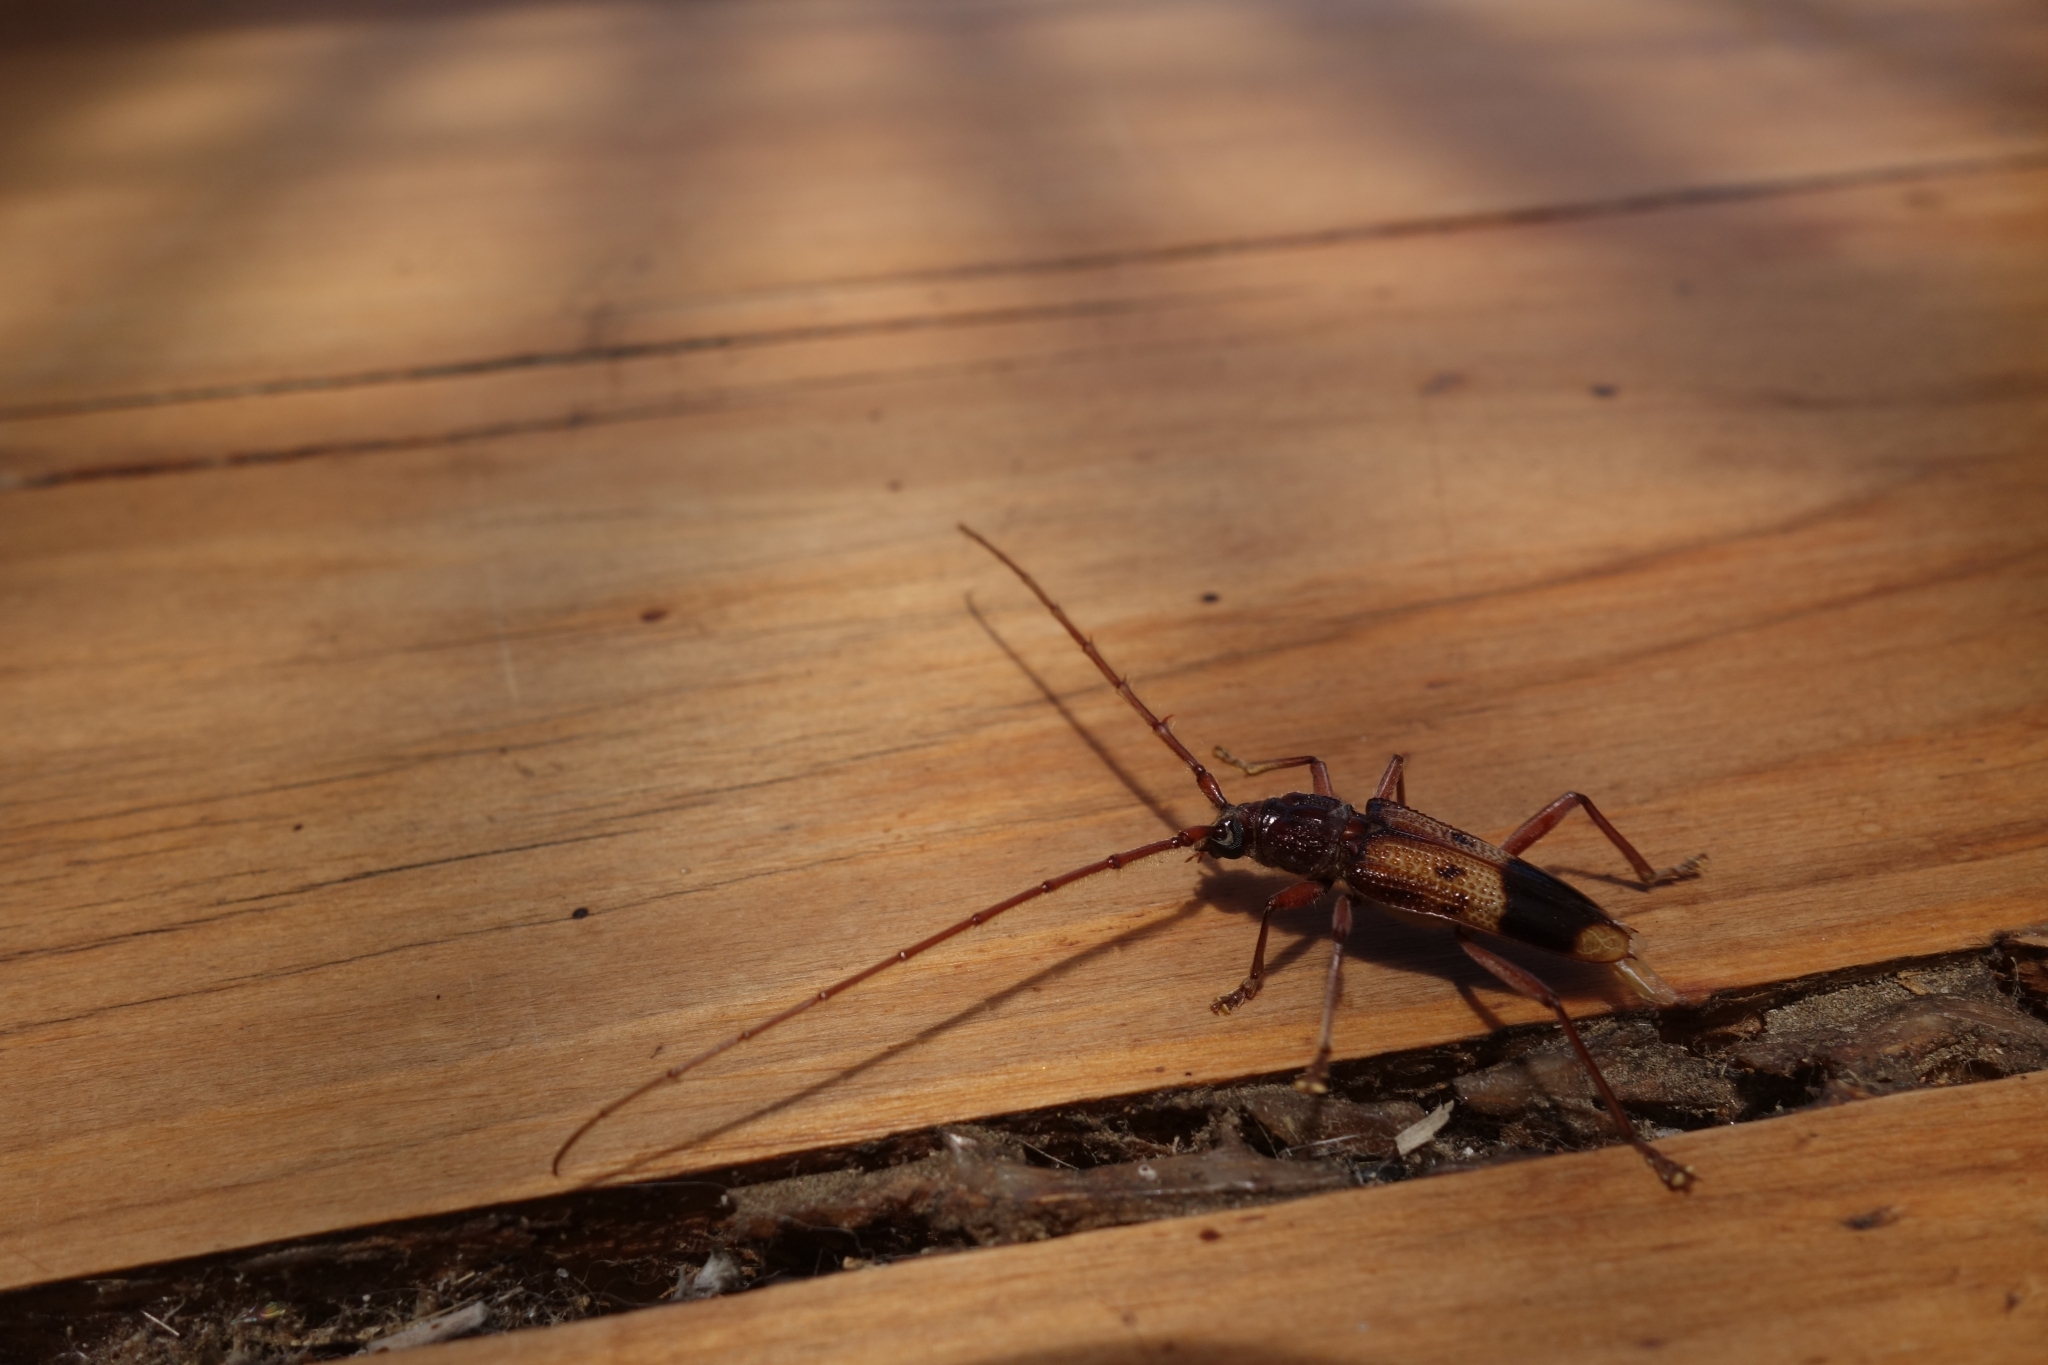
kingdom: Animalia
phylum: Arthropoda
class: Insecta
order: Coleoptera
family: Cerambycidae
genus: Phoracantha
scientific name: Phoracantha recurva
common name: Eucalyptus longhorned borer
